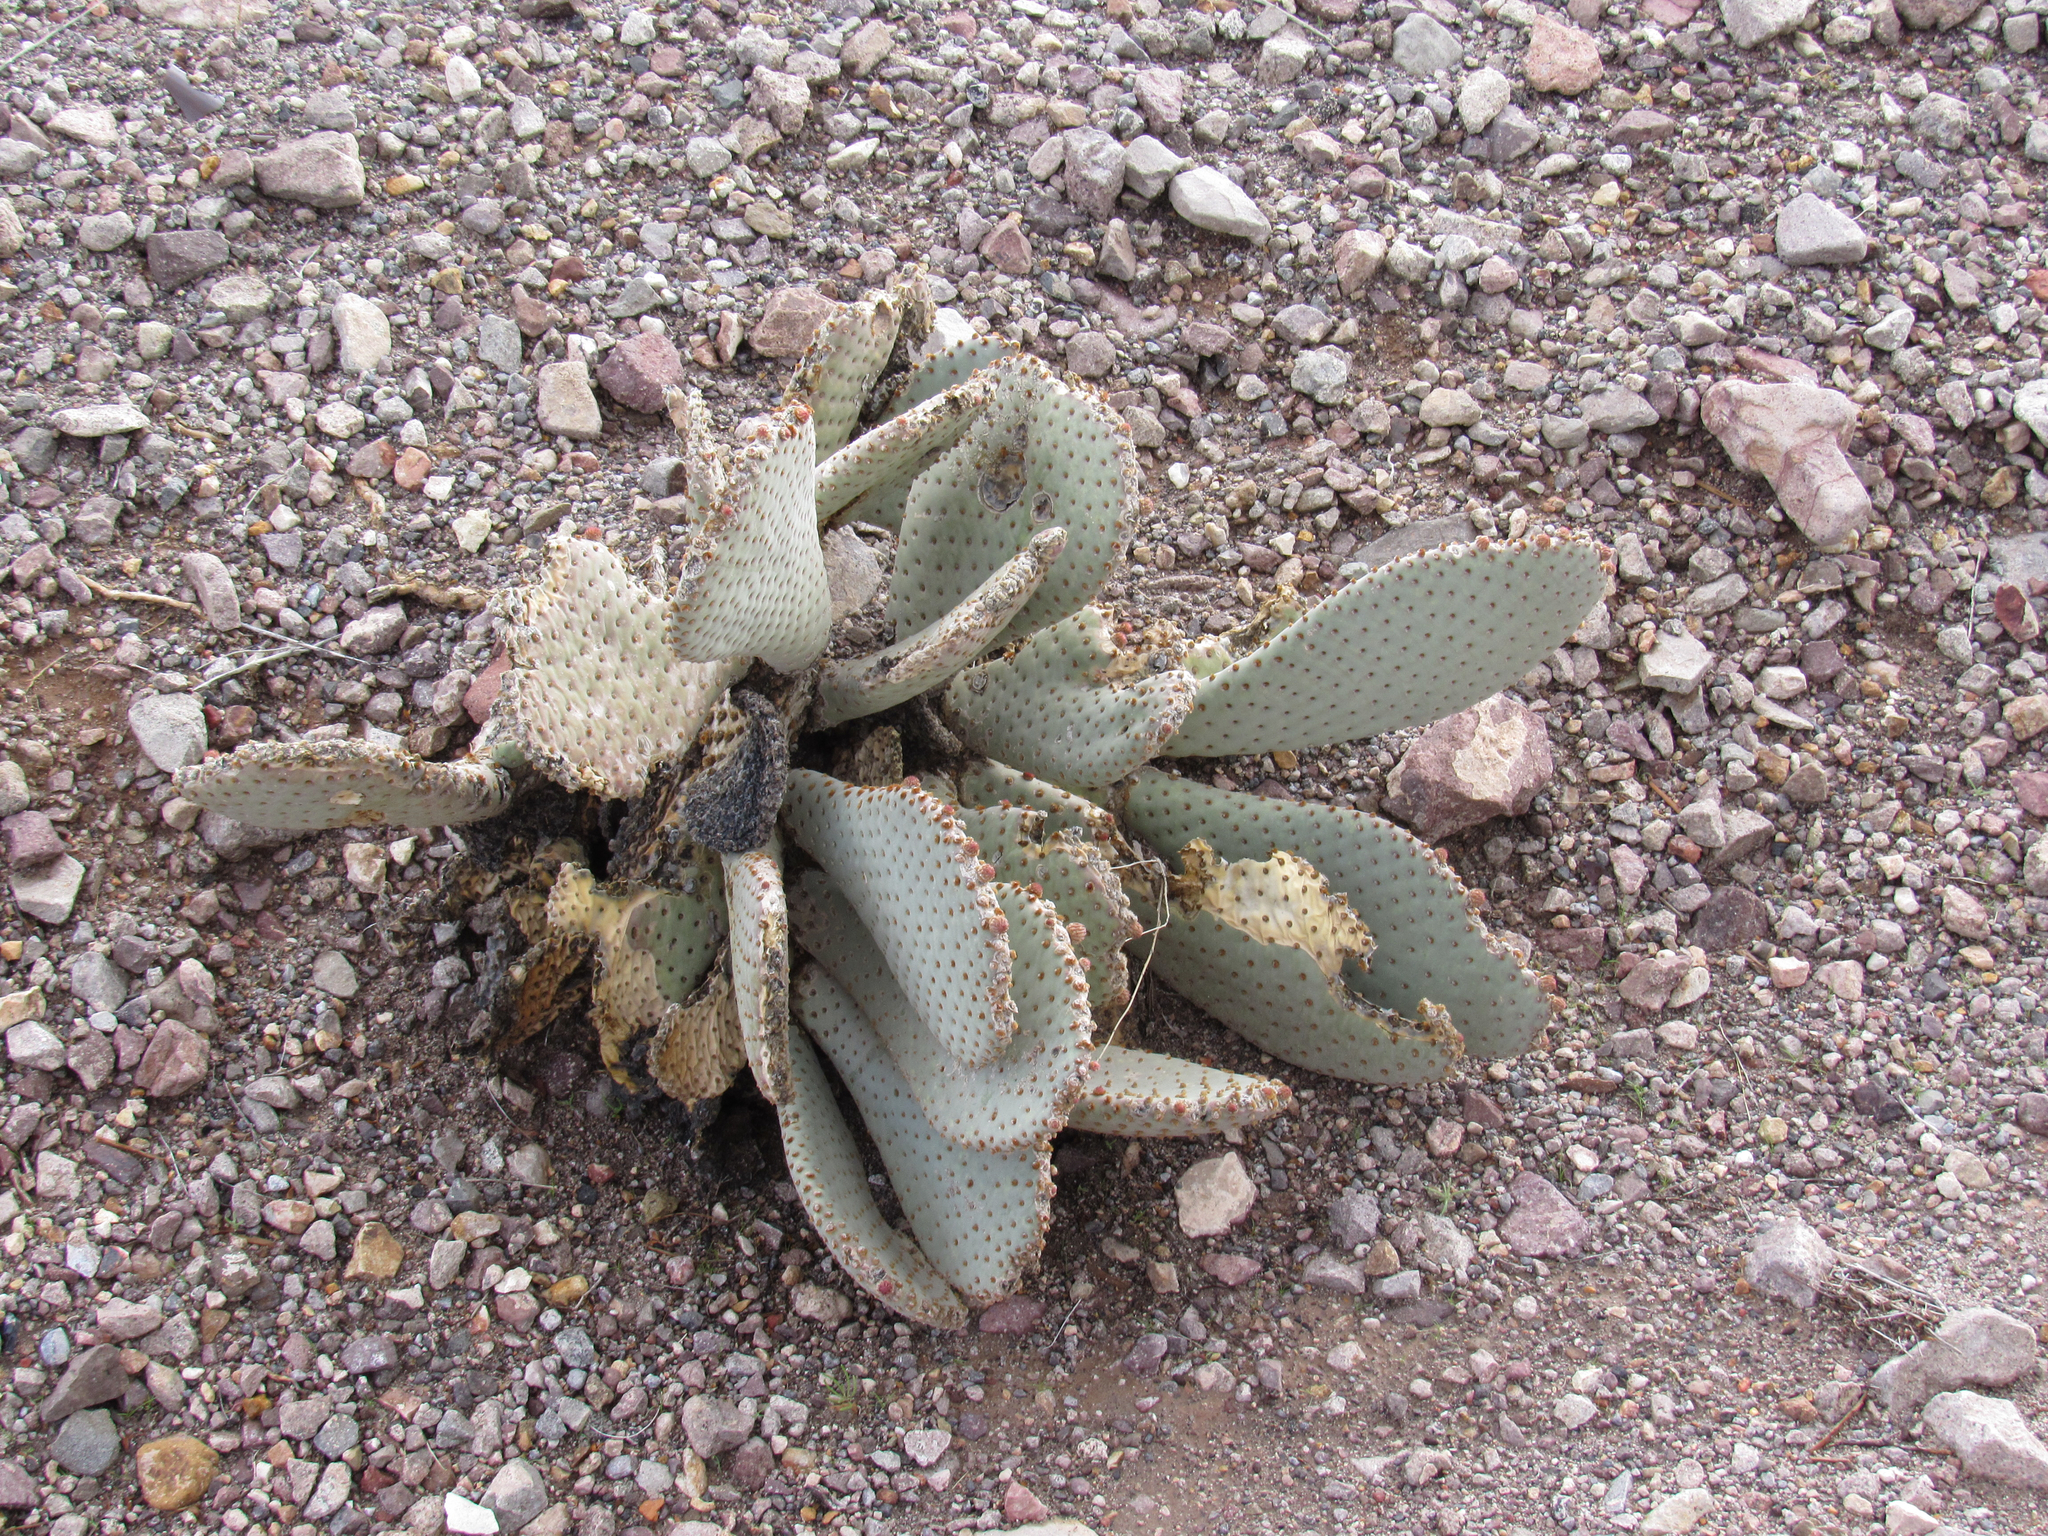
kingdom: Plantae
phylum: Tracheophyta
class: Magnoliopsida
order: Caryophyllales
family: Cactaceae
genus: Opuntia
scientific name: Opuntia basilaris
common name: Beavertail prickly-pear
